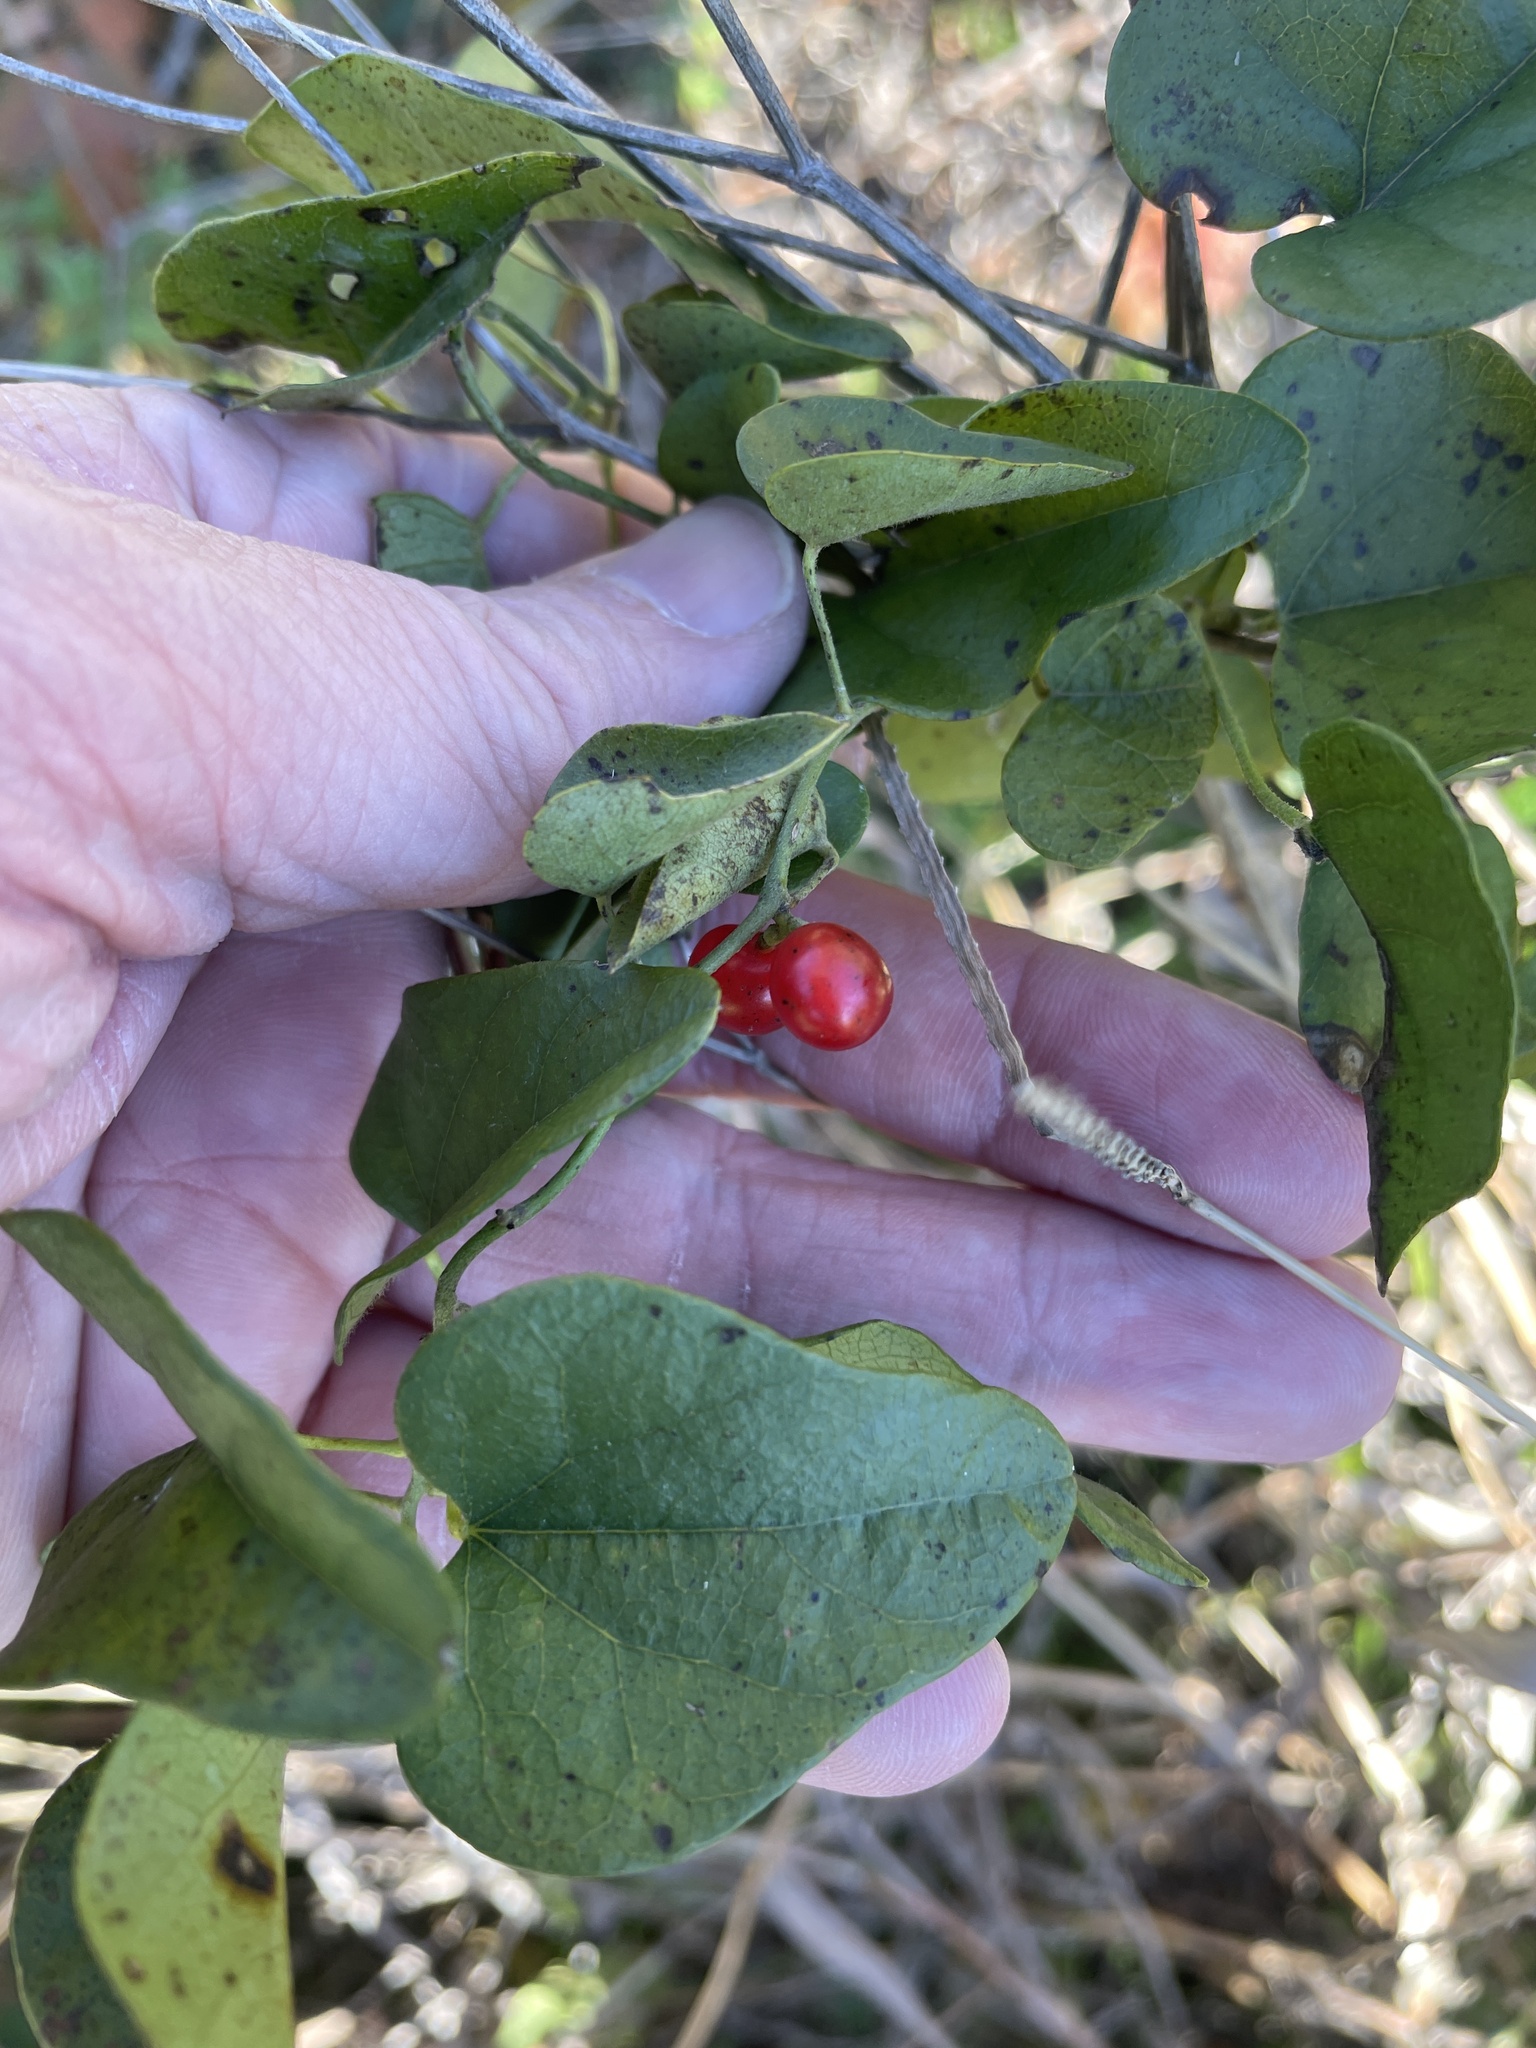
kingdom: Plantae
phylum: Tracheophyta
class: Magnoliopsida
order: Ranunculales
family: Menispermaceae
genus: Cocculus
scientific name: Cocculus carolinus
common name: Carolina moonseed
